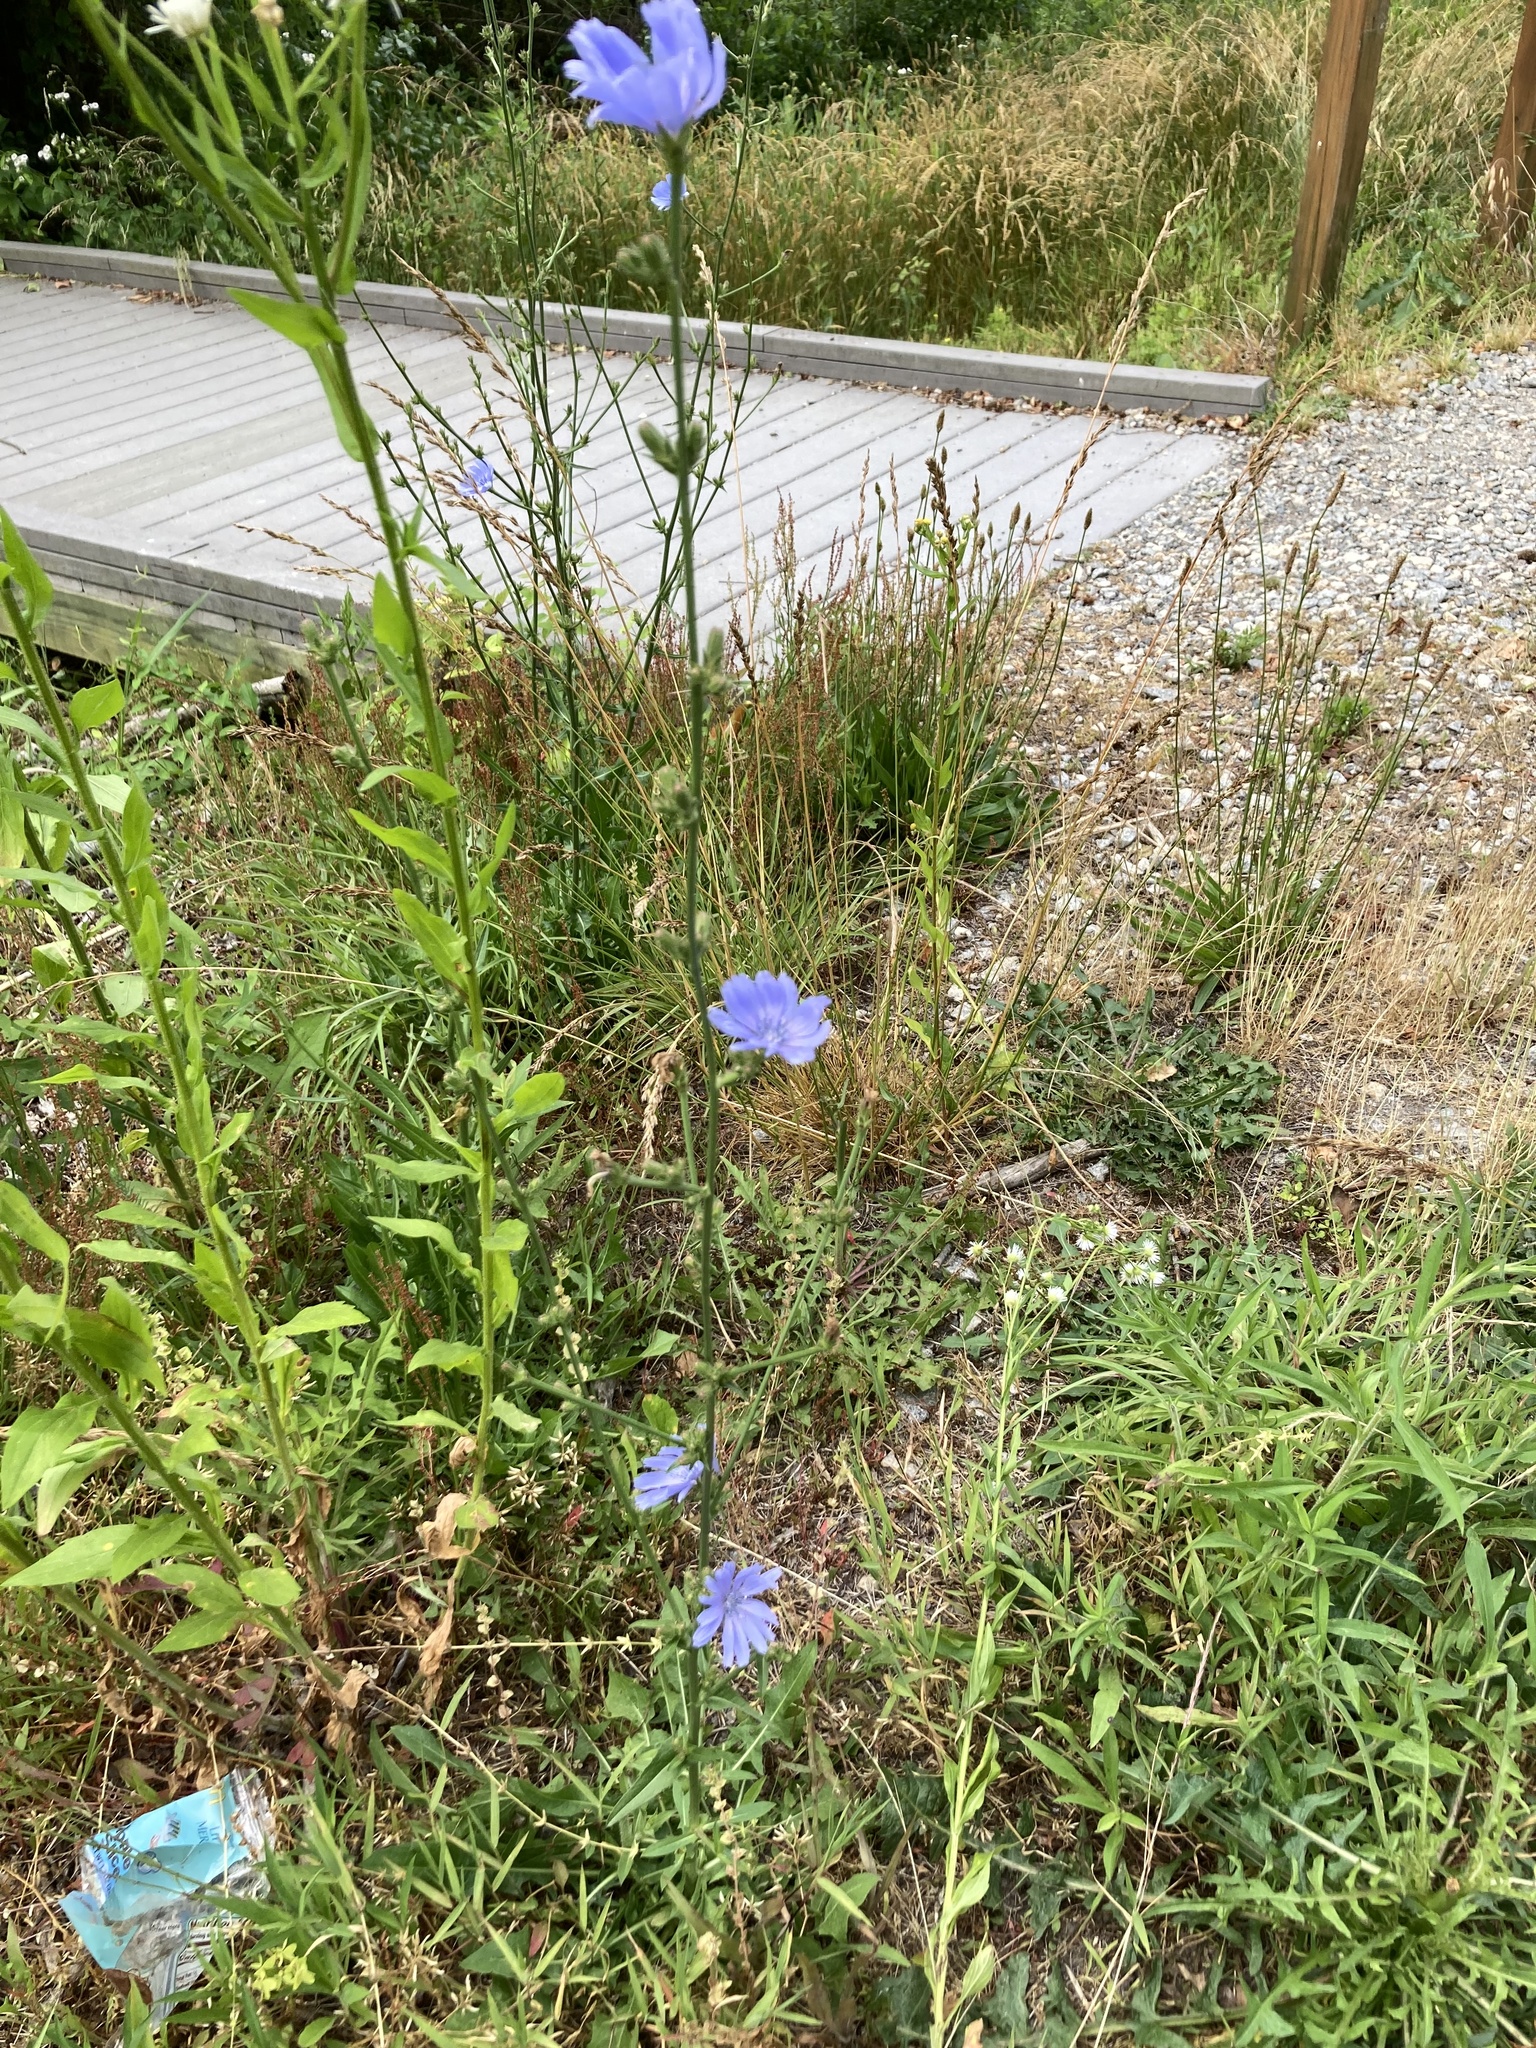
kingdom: Plantae
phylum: Tracheophyta
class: Magnoliopsida
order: Asterales
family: Asteraceae
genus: Cichorium
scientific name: Cichorium intybus
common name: Chicory
